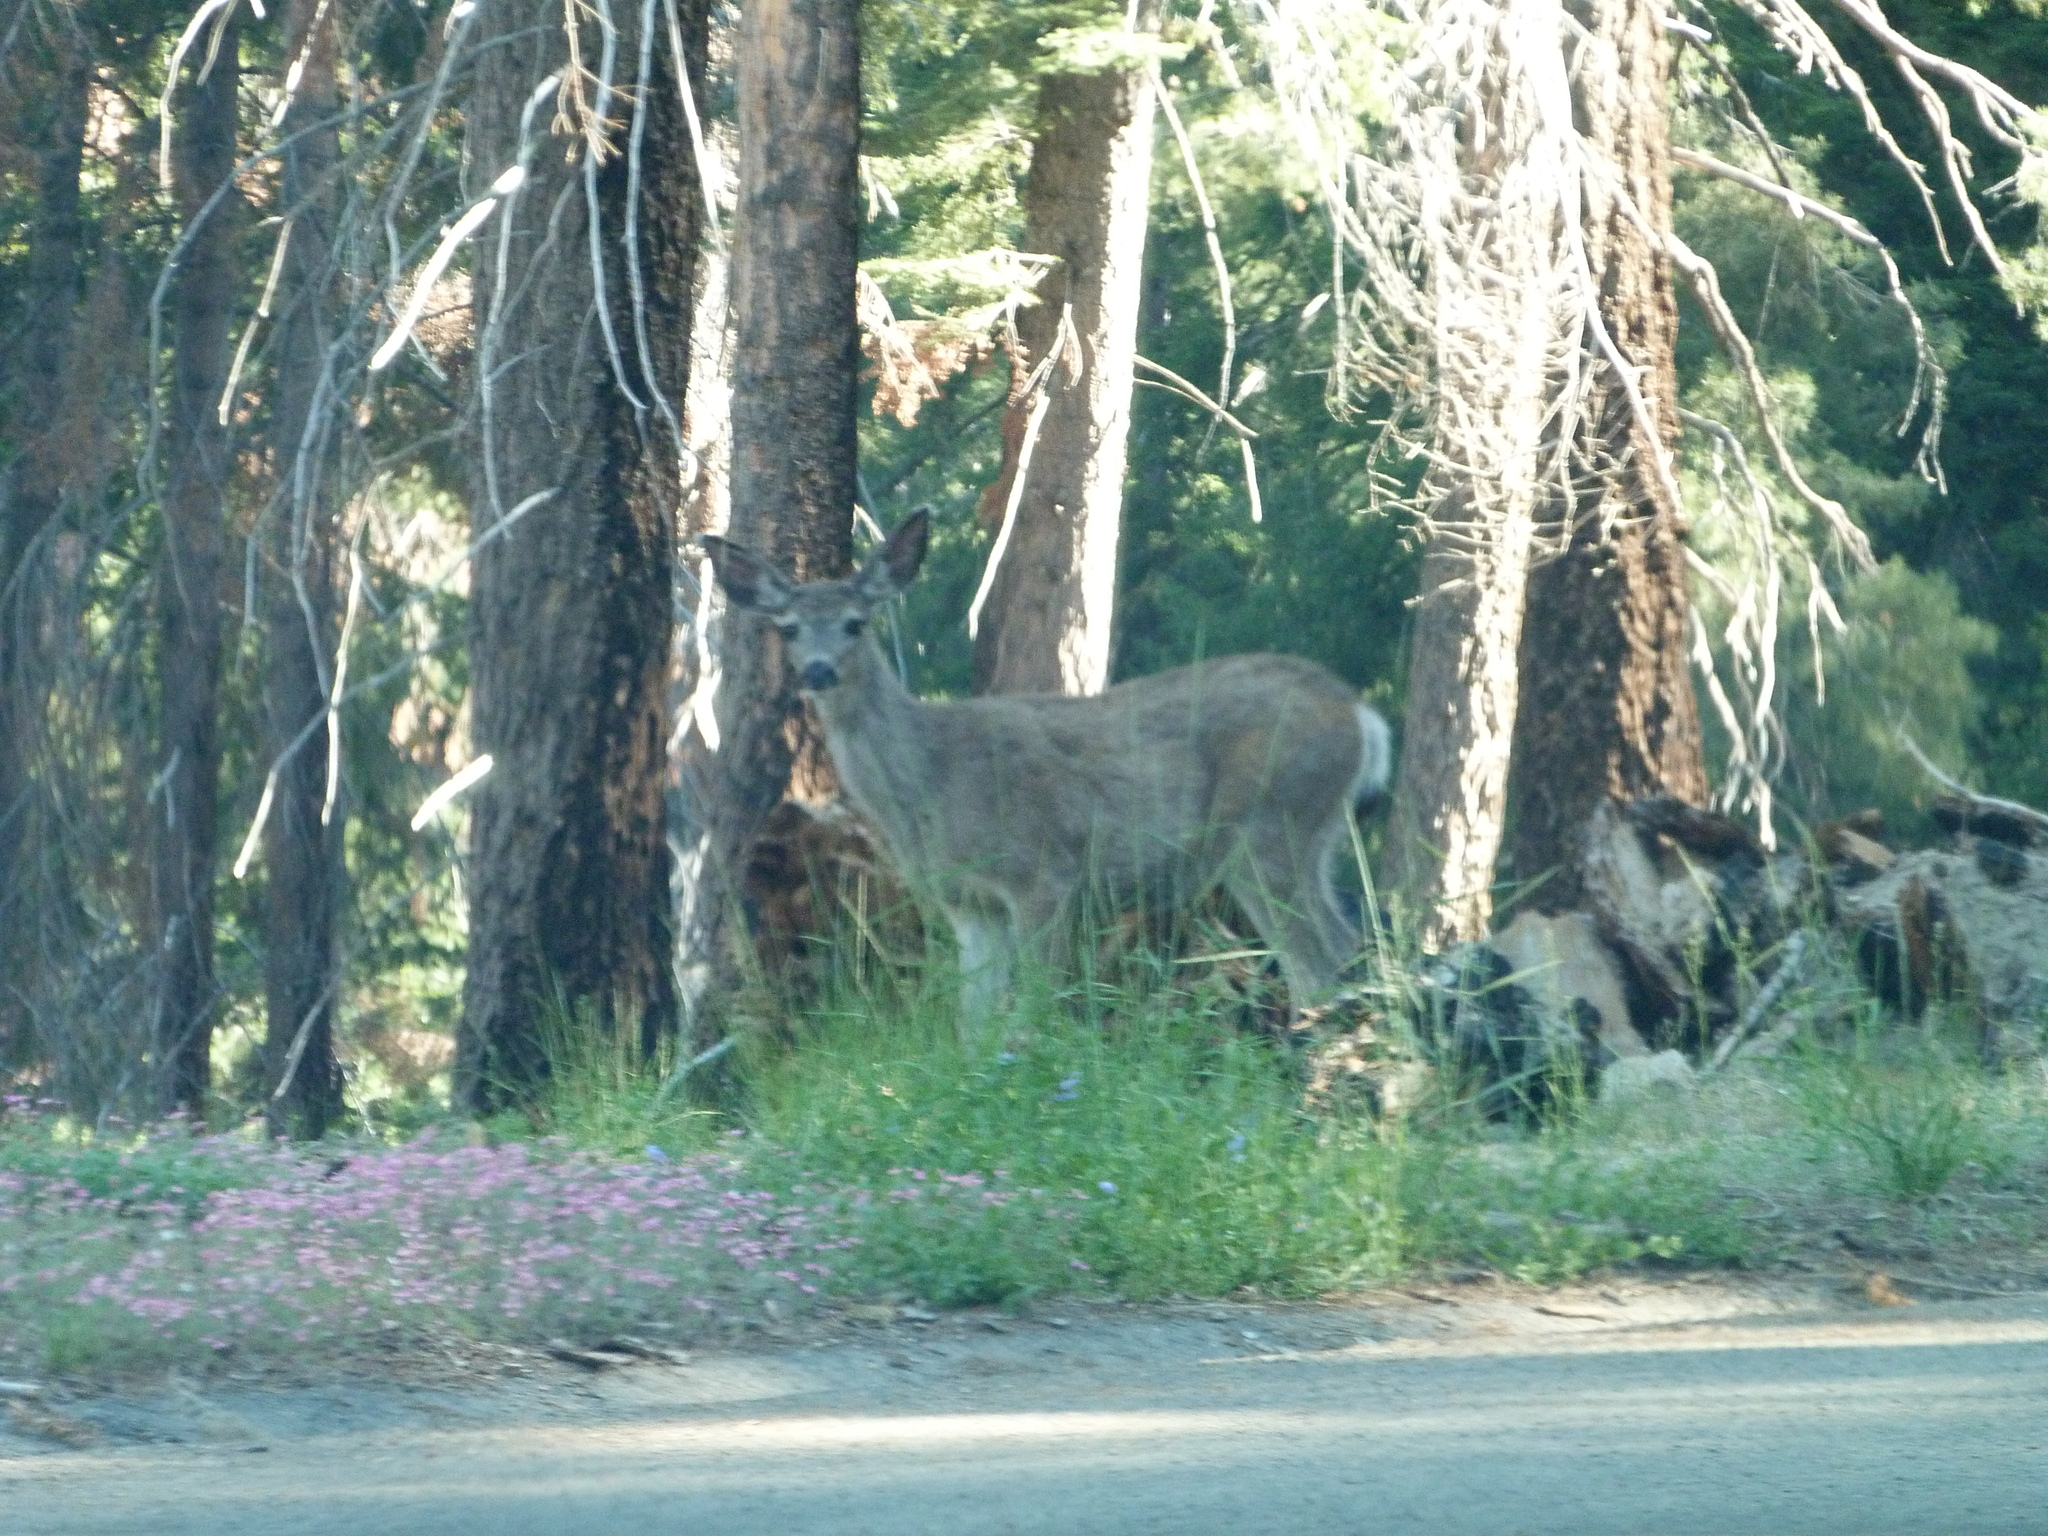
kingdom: Animalia
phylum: Chordata
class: Mammalia
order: Artiodactyla
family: Cervidae
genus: Odocoileus
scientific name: Odocoileus hemionus
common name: Mule deer
